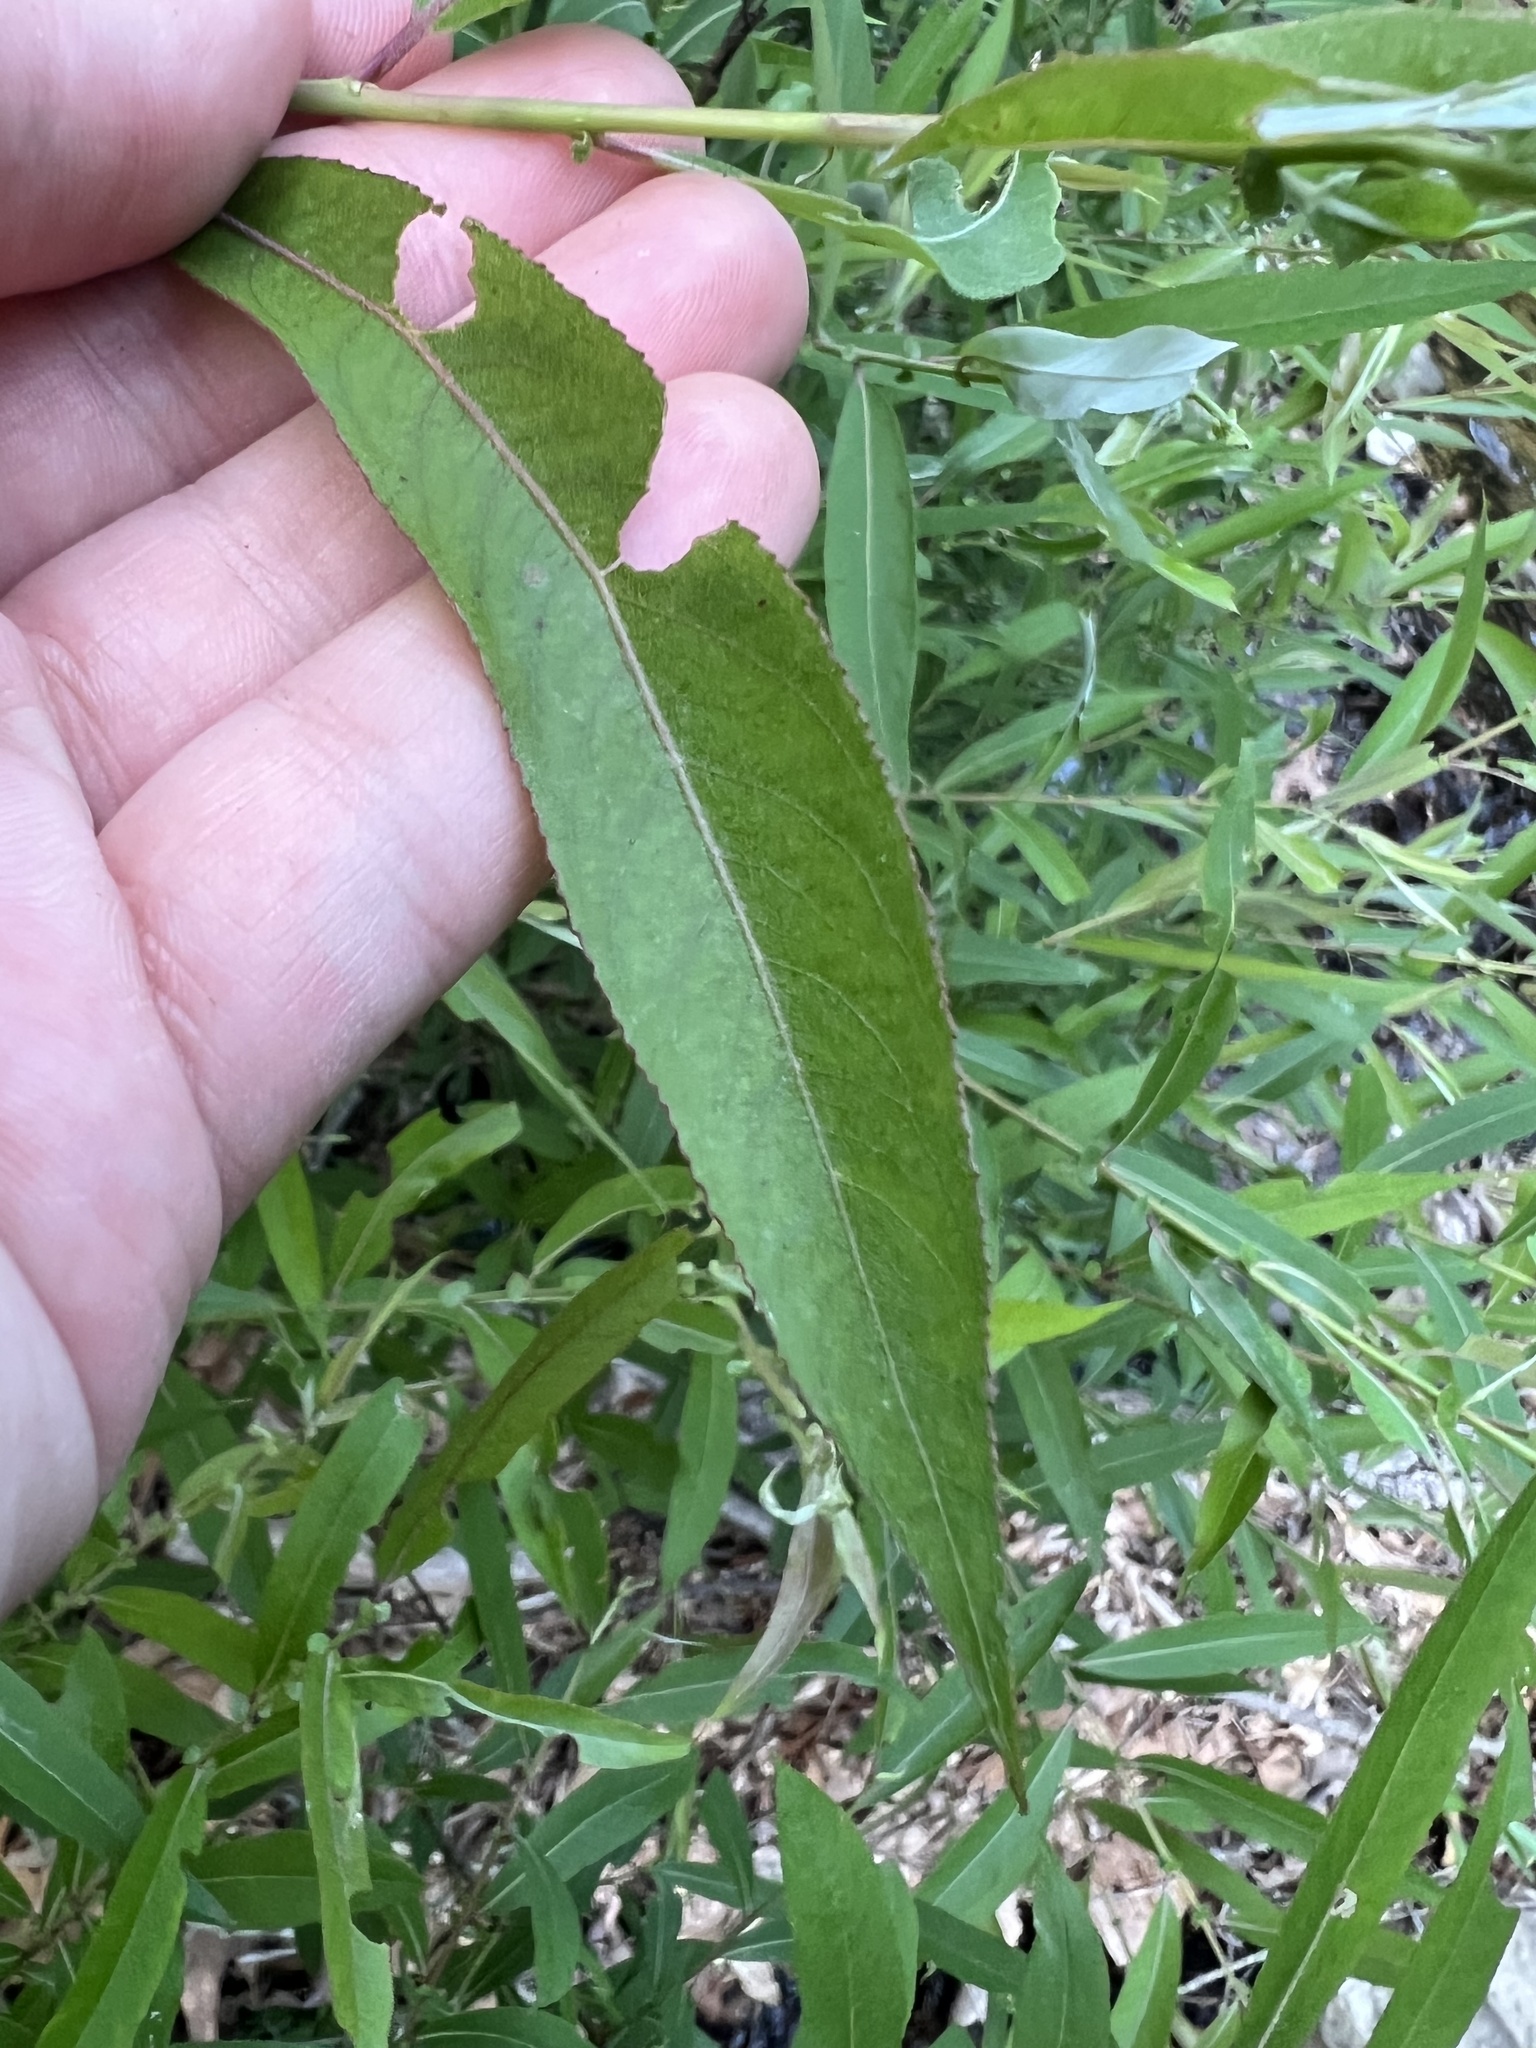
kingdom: Plantae
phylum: Tracheophyta
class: Magnoliopsida
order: Malpighiales
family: Salicaceae
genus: Salix
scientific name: Salix caroliniana
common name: Carolina willow
